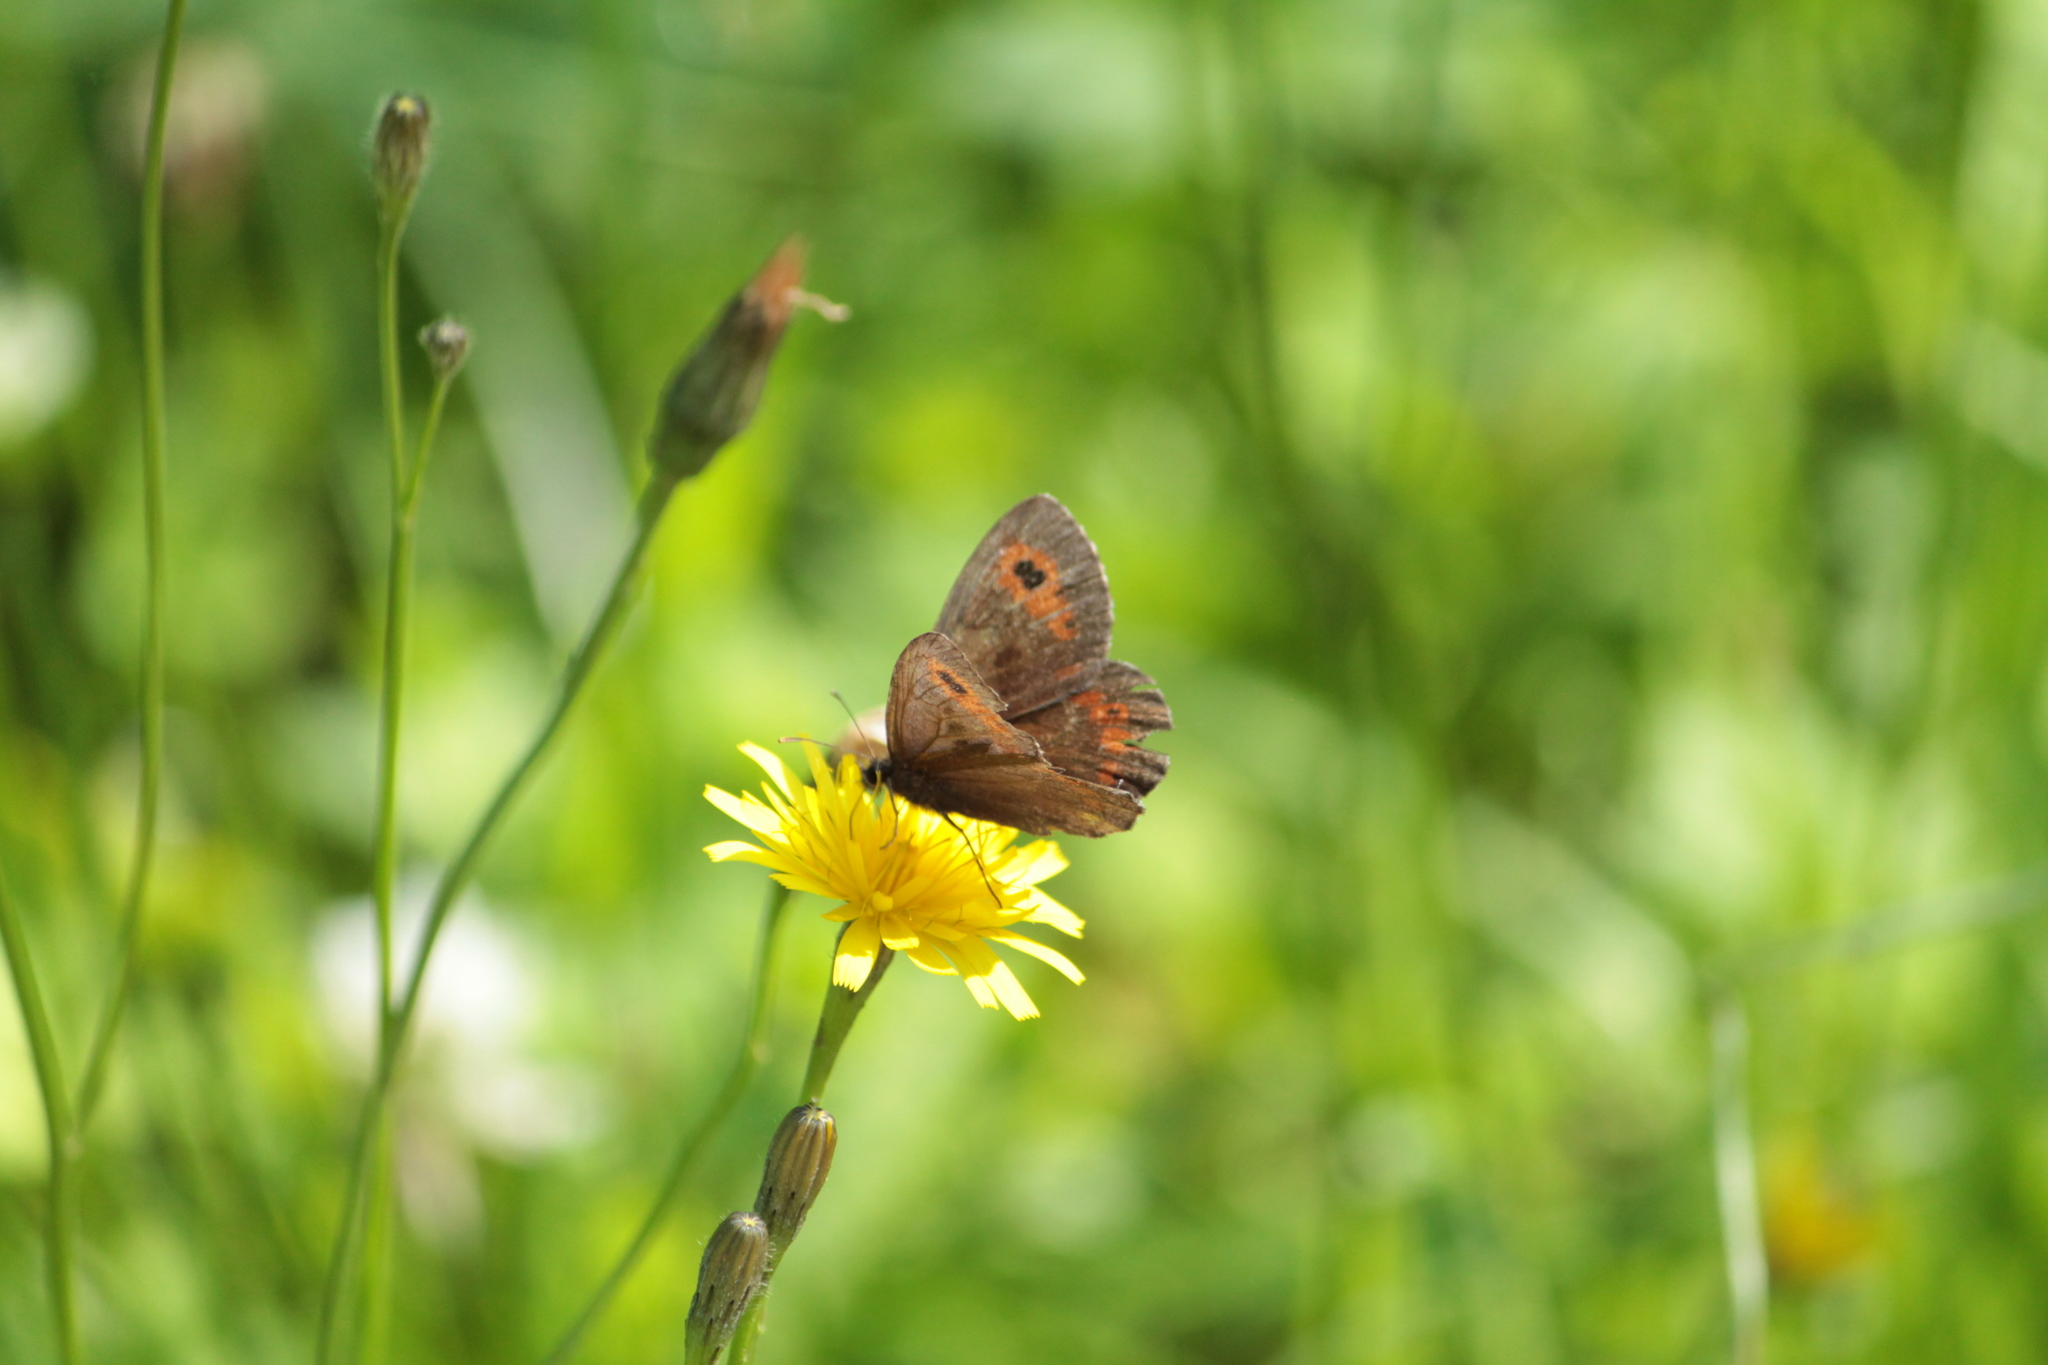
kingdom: Animalia
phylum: Arthropoda
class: Insecta
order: Lepidoptera
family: Nymphalidae
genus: Erebia
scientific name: Erebia ligea
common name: Arran brown
